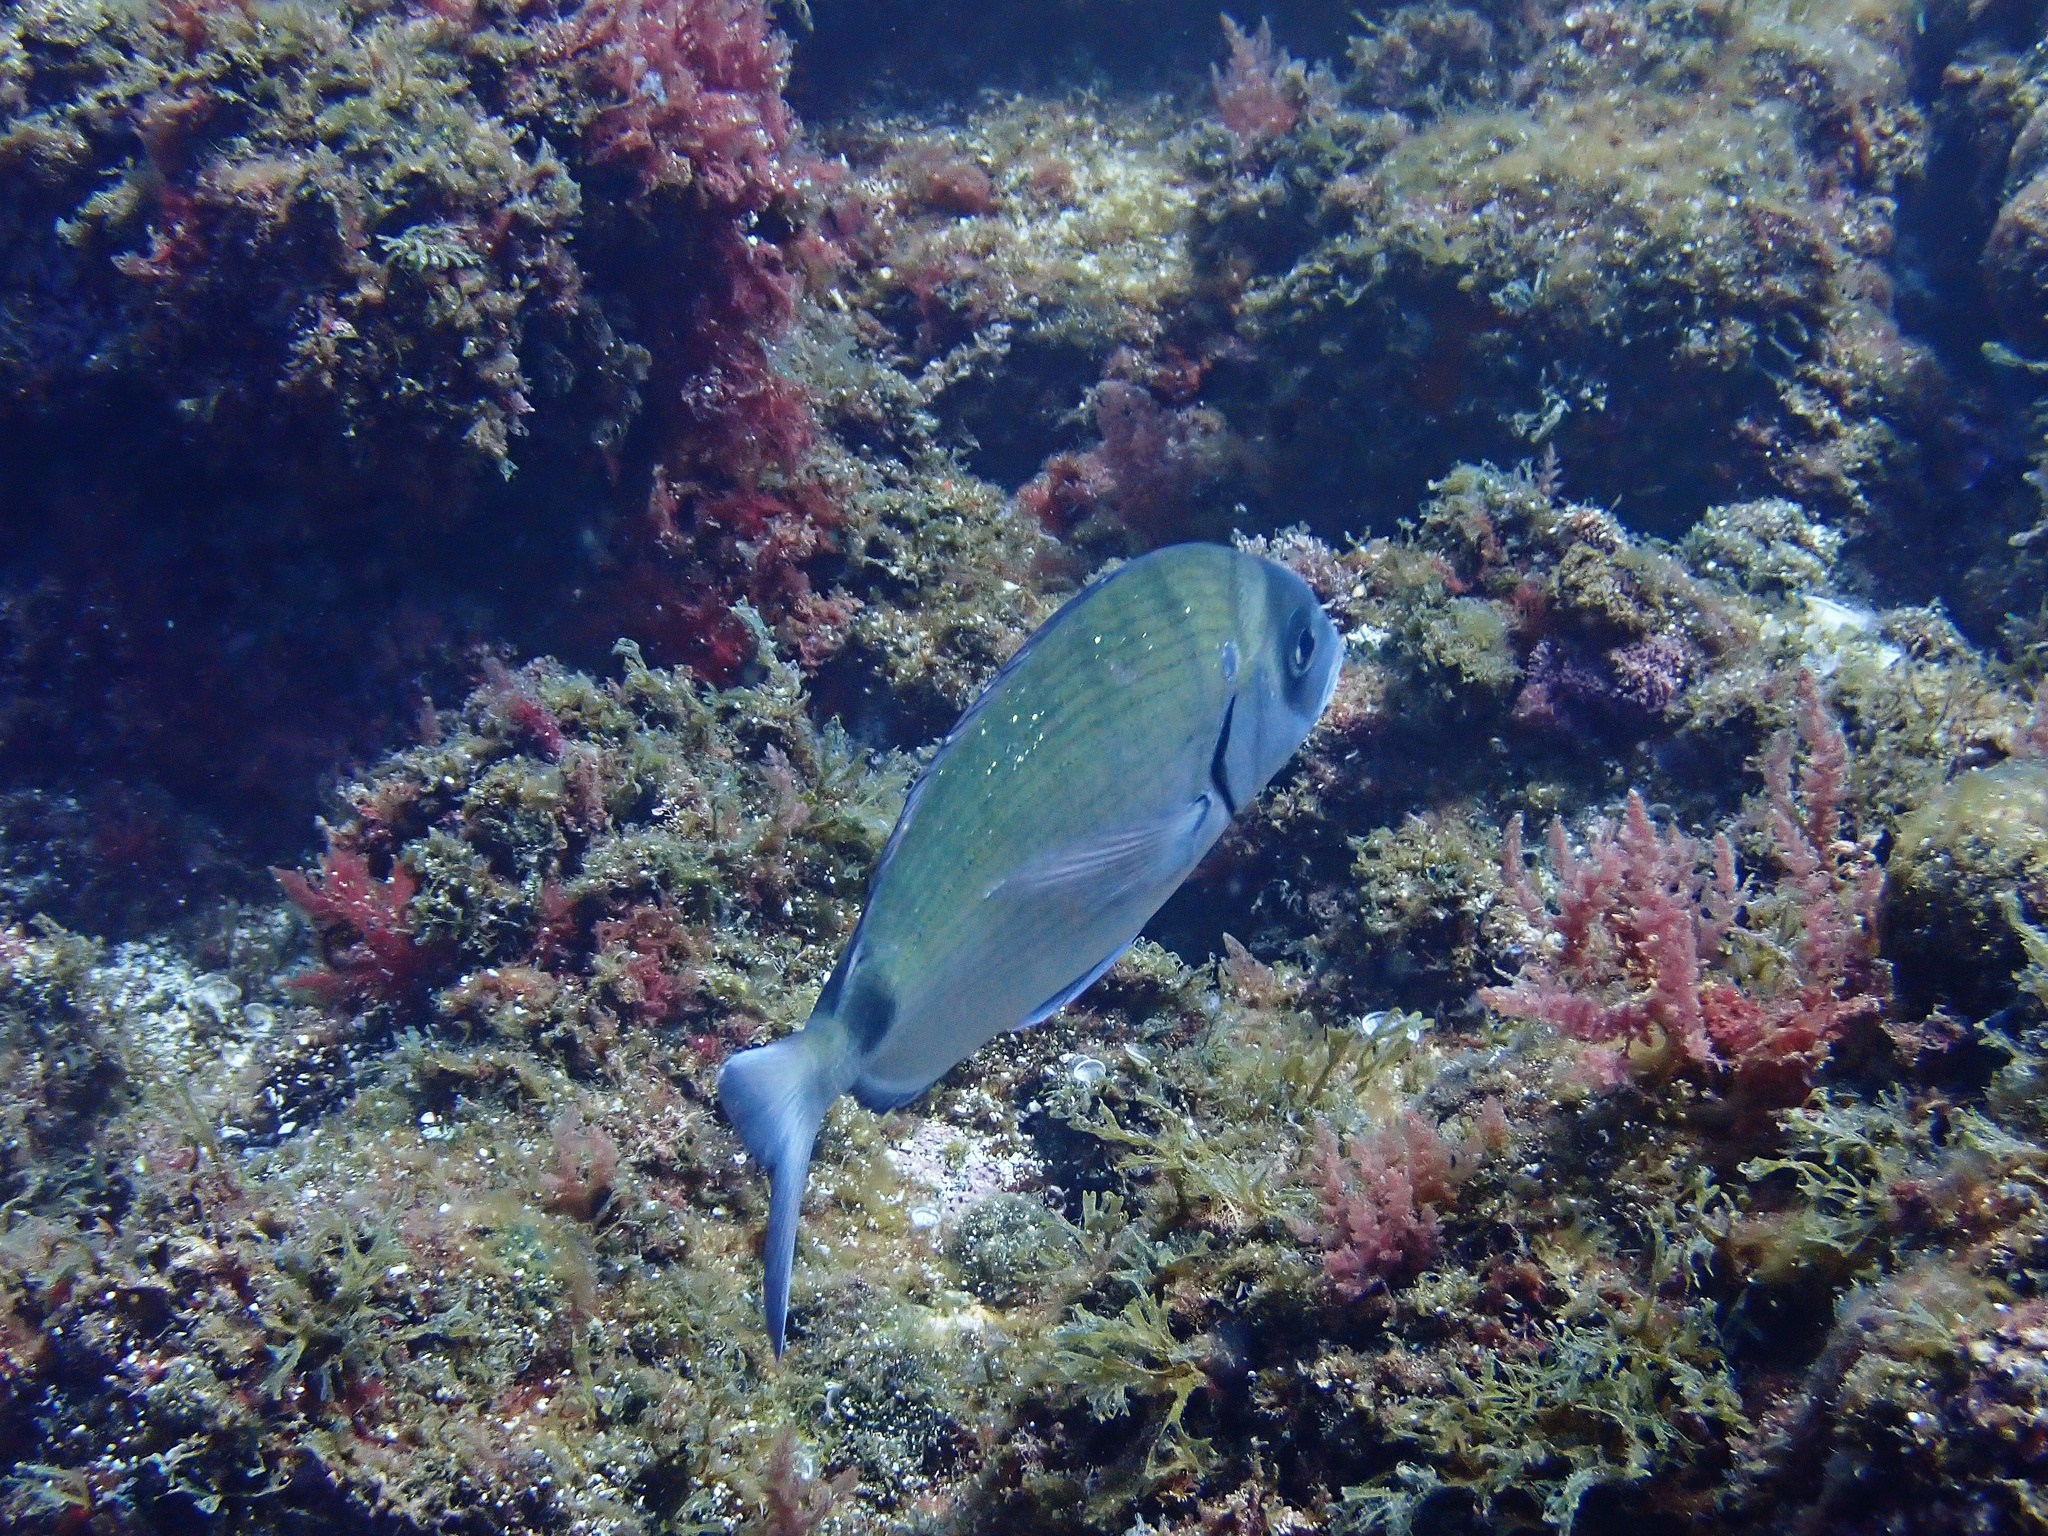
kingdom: Animalia
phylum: Chordata
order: Perciformes
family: Sparidae
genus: Diplodus
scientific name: Diplodus sargus
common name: White seabream
